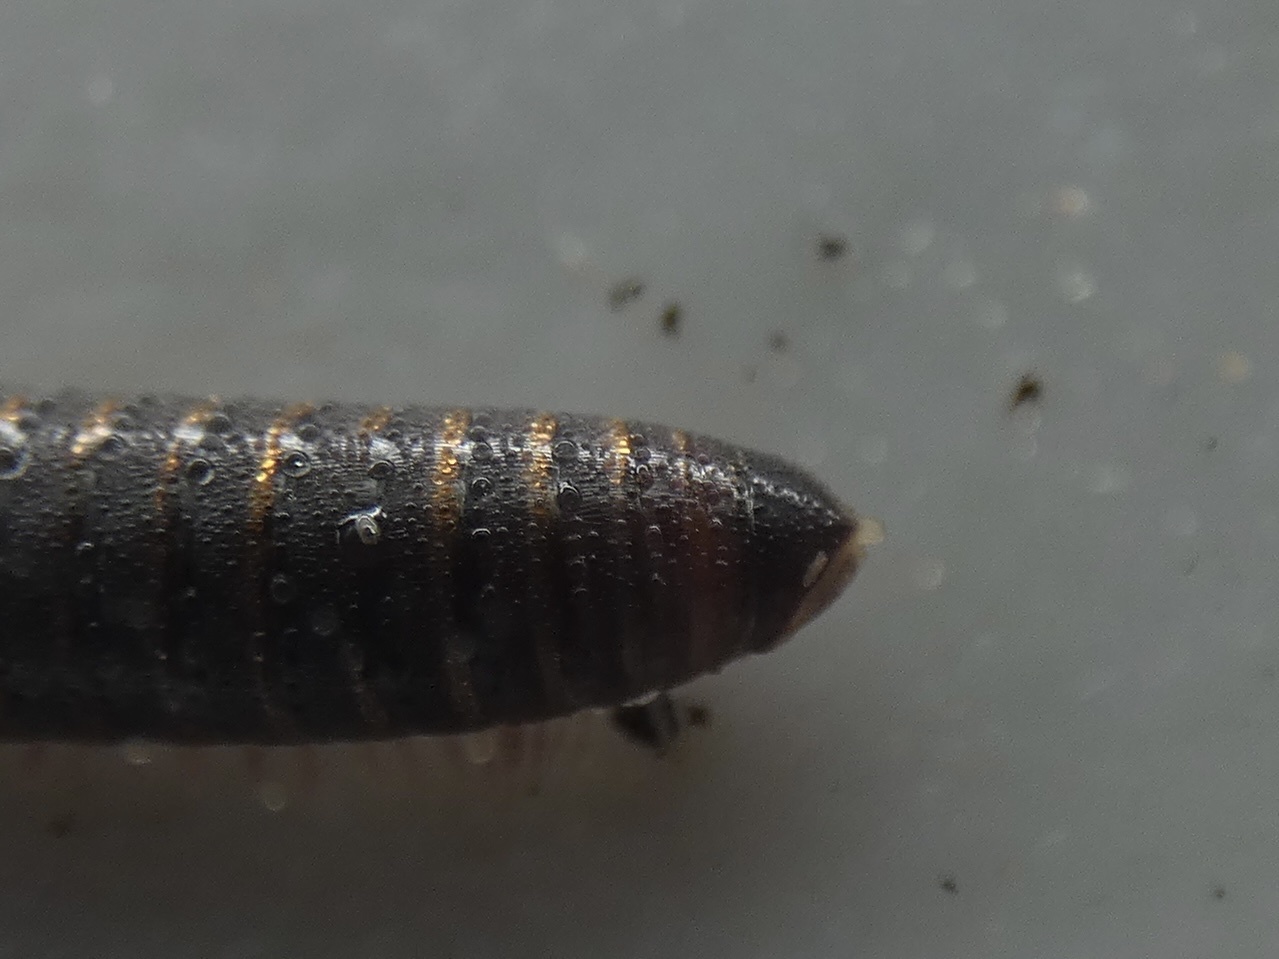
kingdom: Animalia
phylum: Arthropoda
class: Diplopoda
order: Julida
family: Julidae
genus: Cylindroiulus
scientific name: Cylindroiulus londinensis
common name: Black millipede
